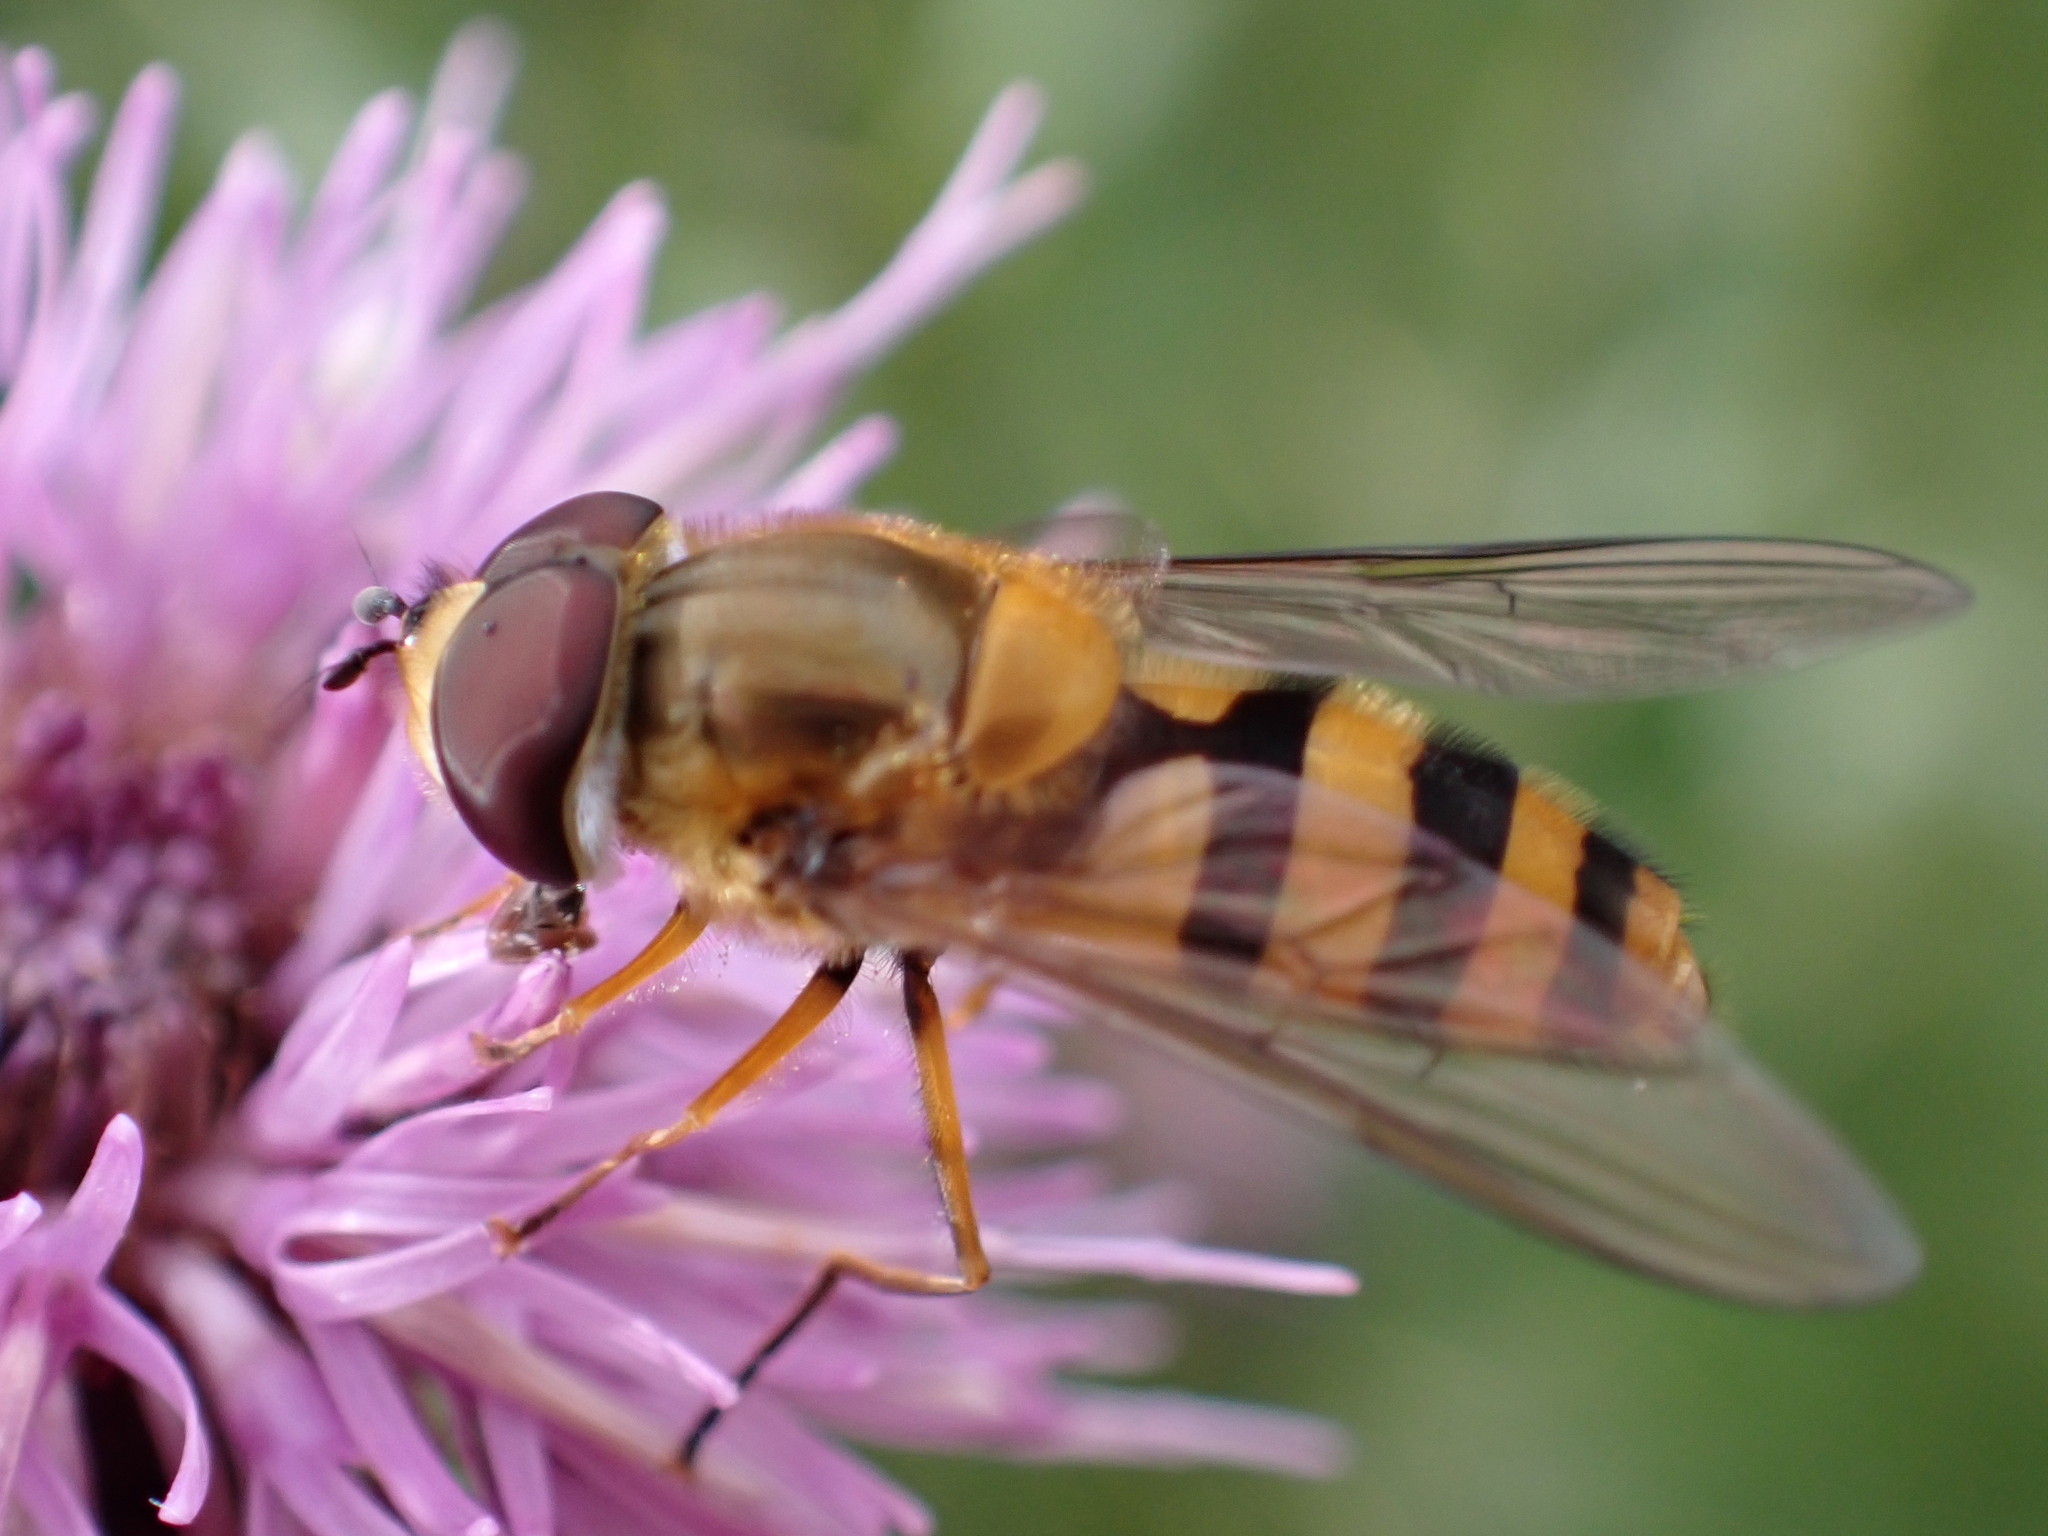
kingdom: Animalia
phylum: Arthropoda
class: Insecta
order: Diptera
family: Syrphidae
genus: Epistrophe
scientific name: Epistrophe grossulariae
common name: Black-horned smoothtail
